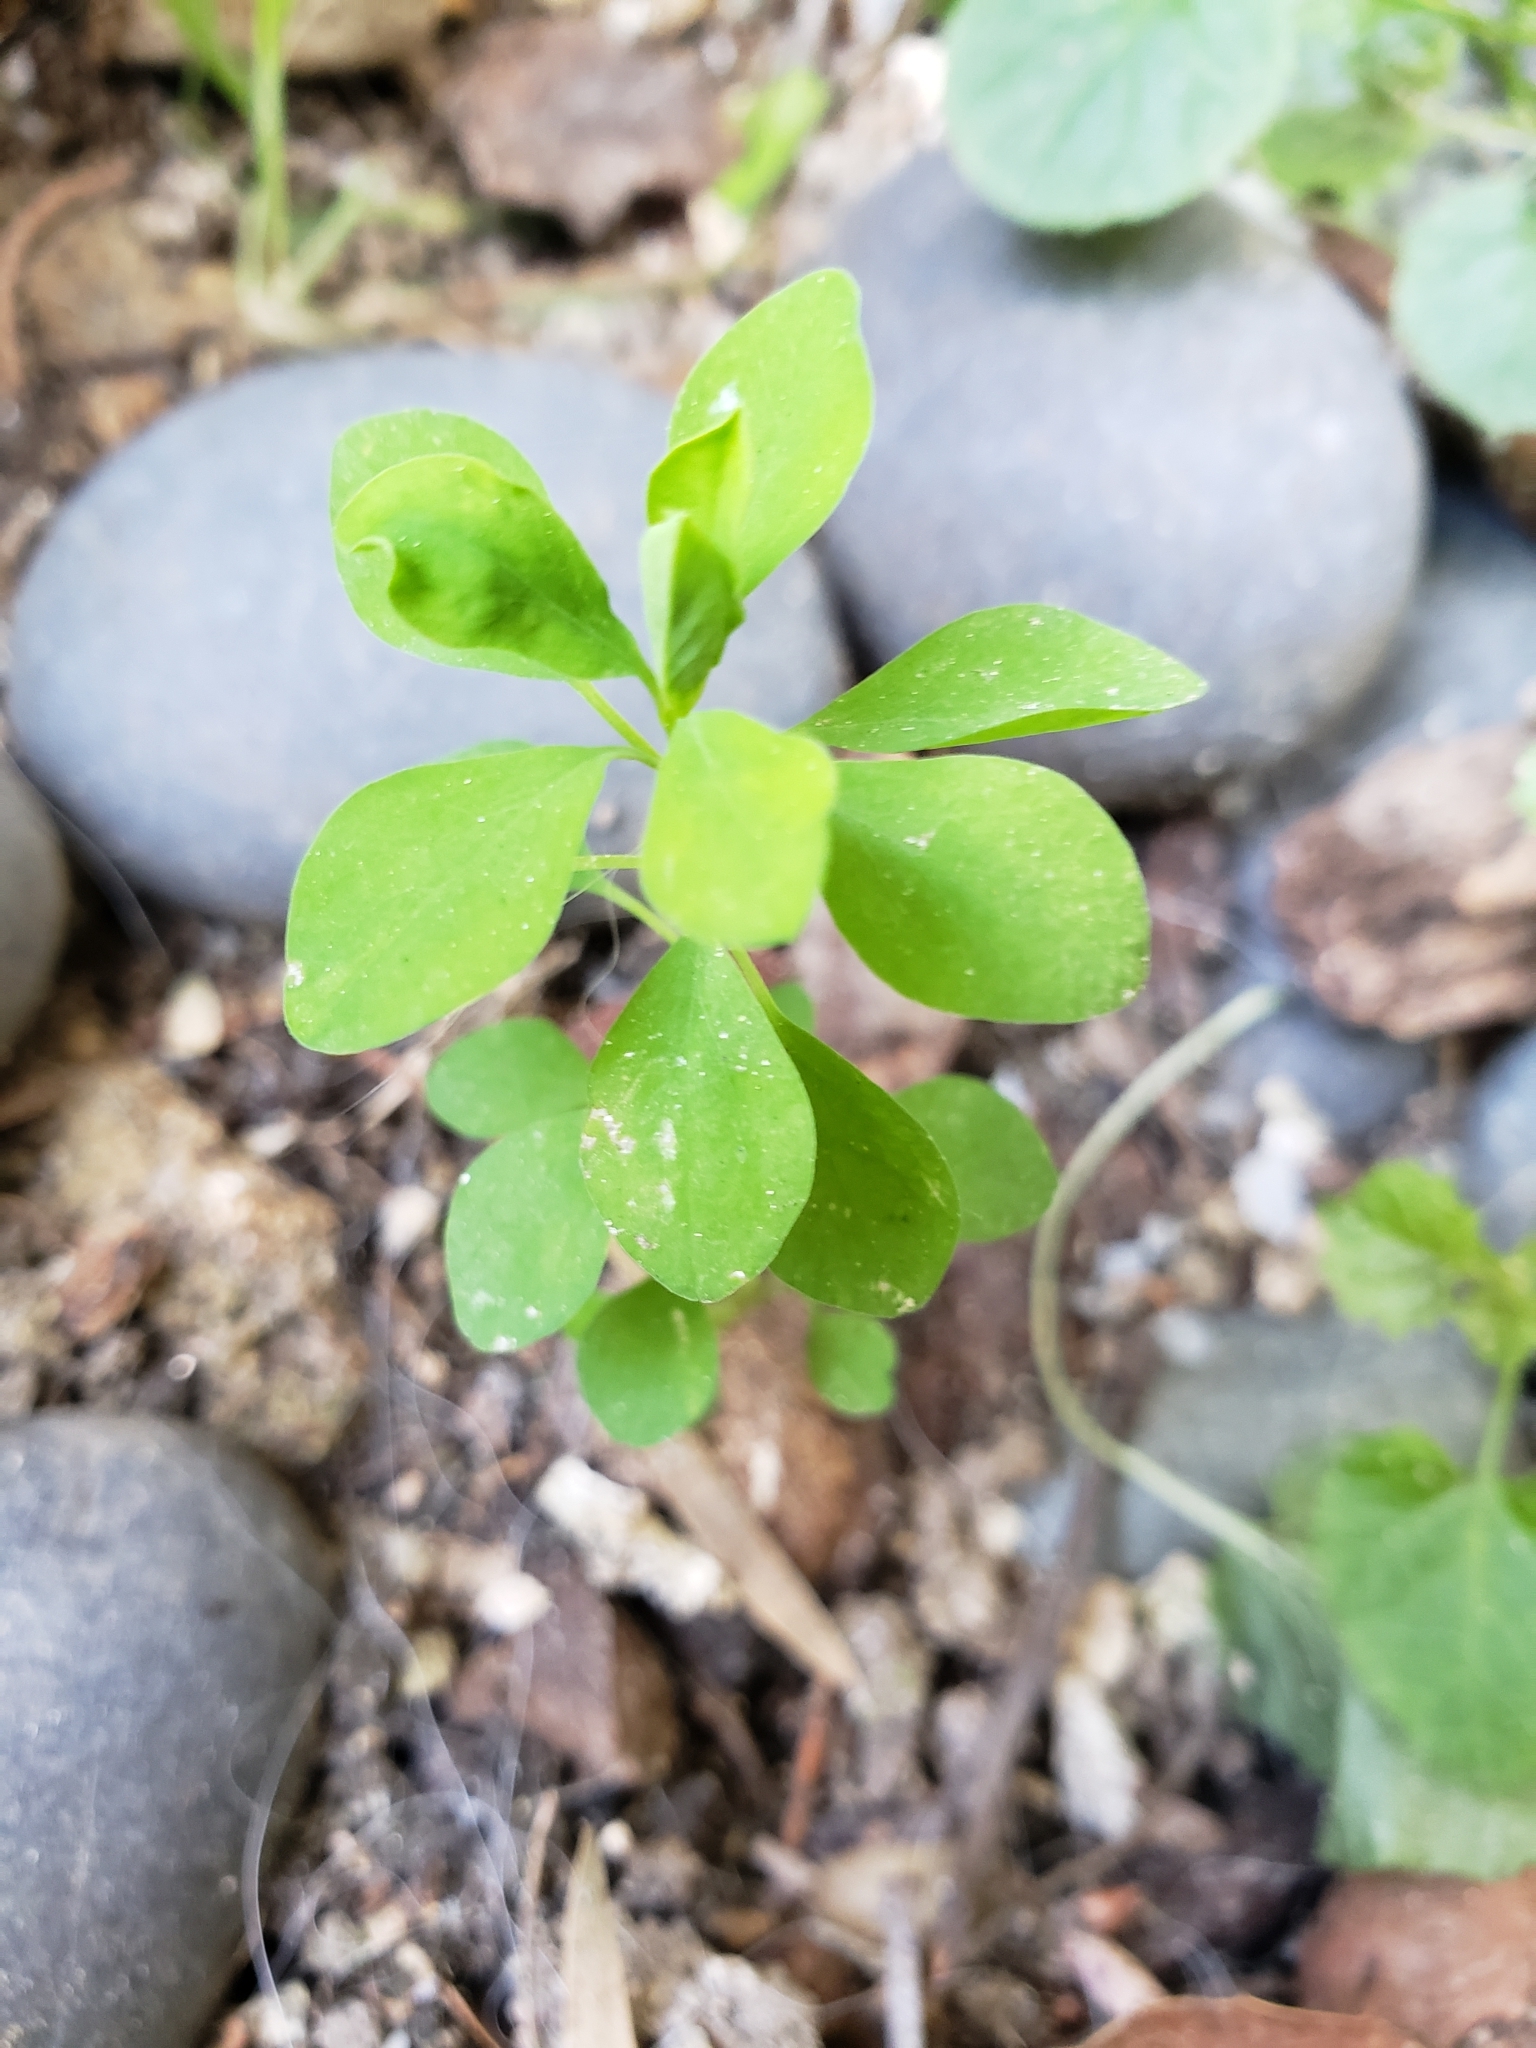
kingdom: Plantae
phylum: Tracheophyta
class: Magnoliopsida
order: Malpighiales
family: Euphorbiaceae
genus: Euphorbia
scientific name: Euphorbia peplus
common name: Petty spurge
